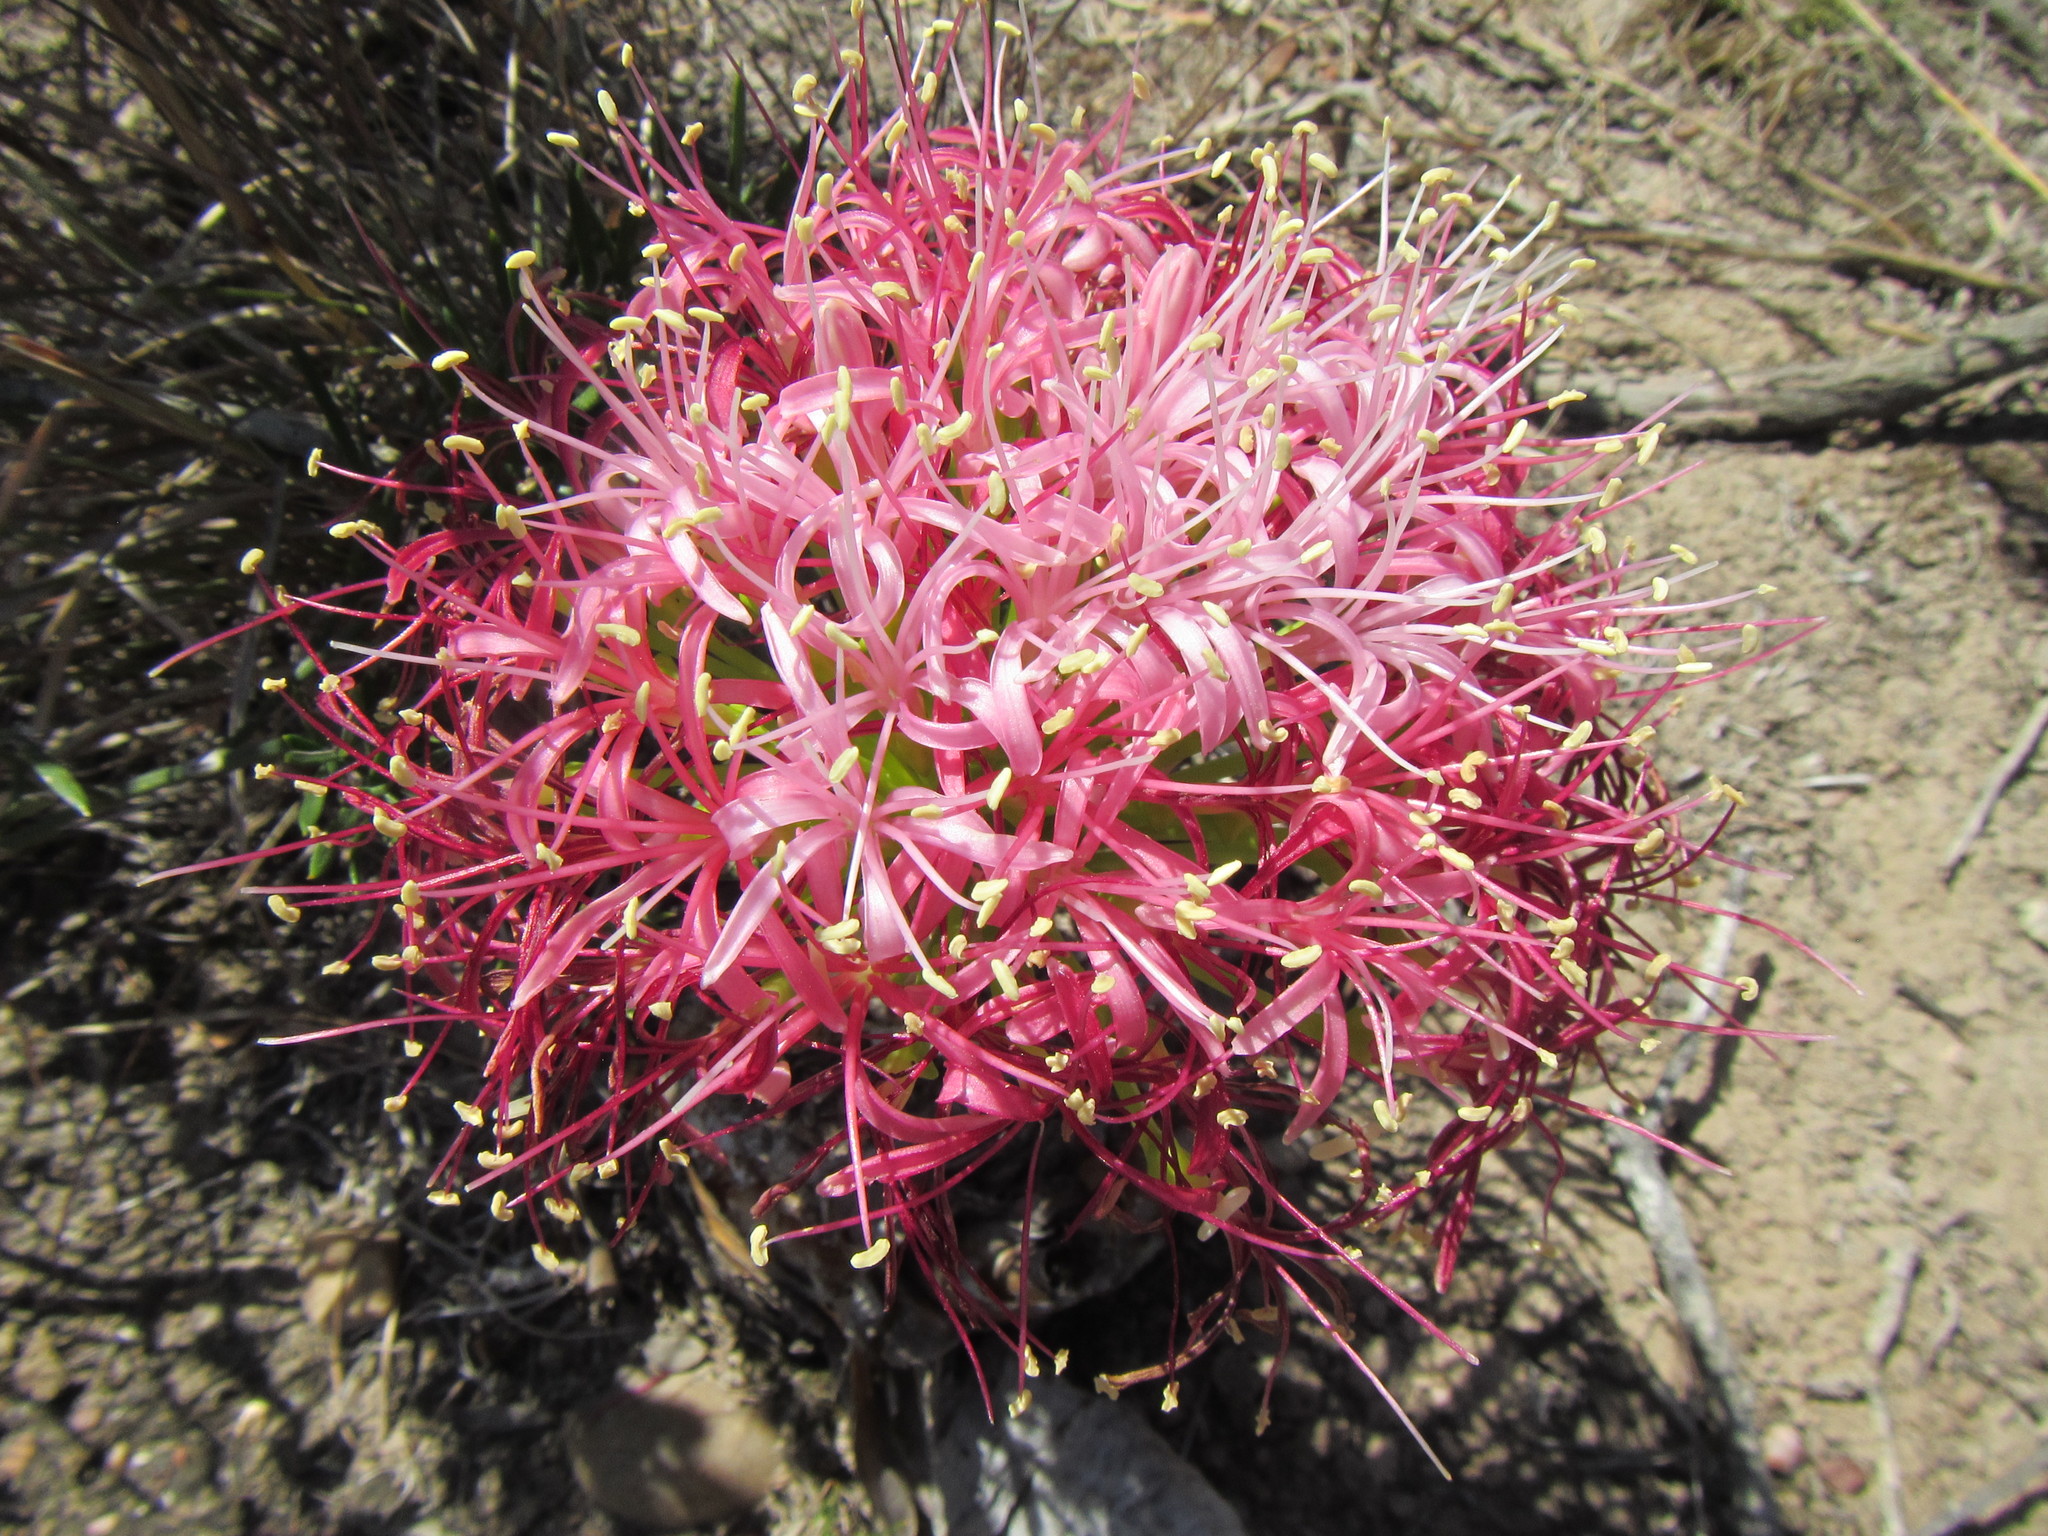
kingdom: Plantae
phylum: Tracheophyta
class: Liliopsida
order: Asparagales
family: Amaryllidaceae
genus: Boophone
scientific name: Boophone disticha
